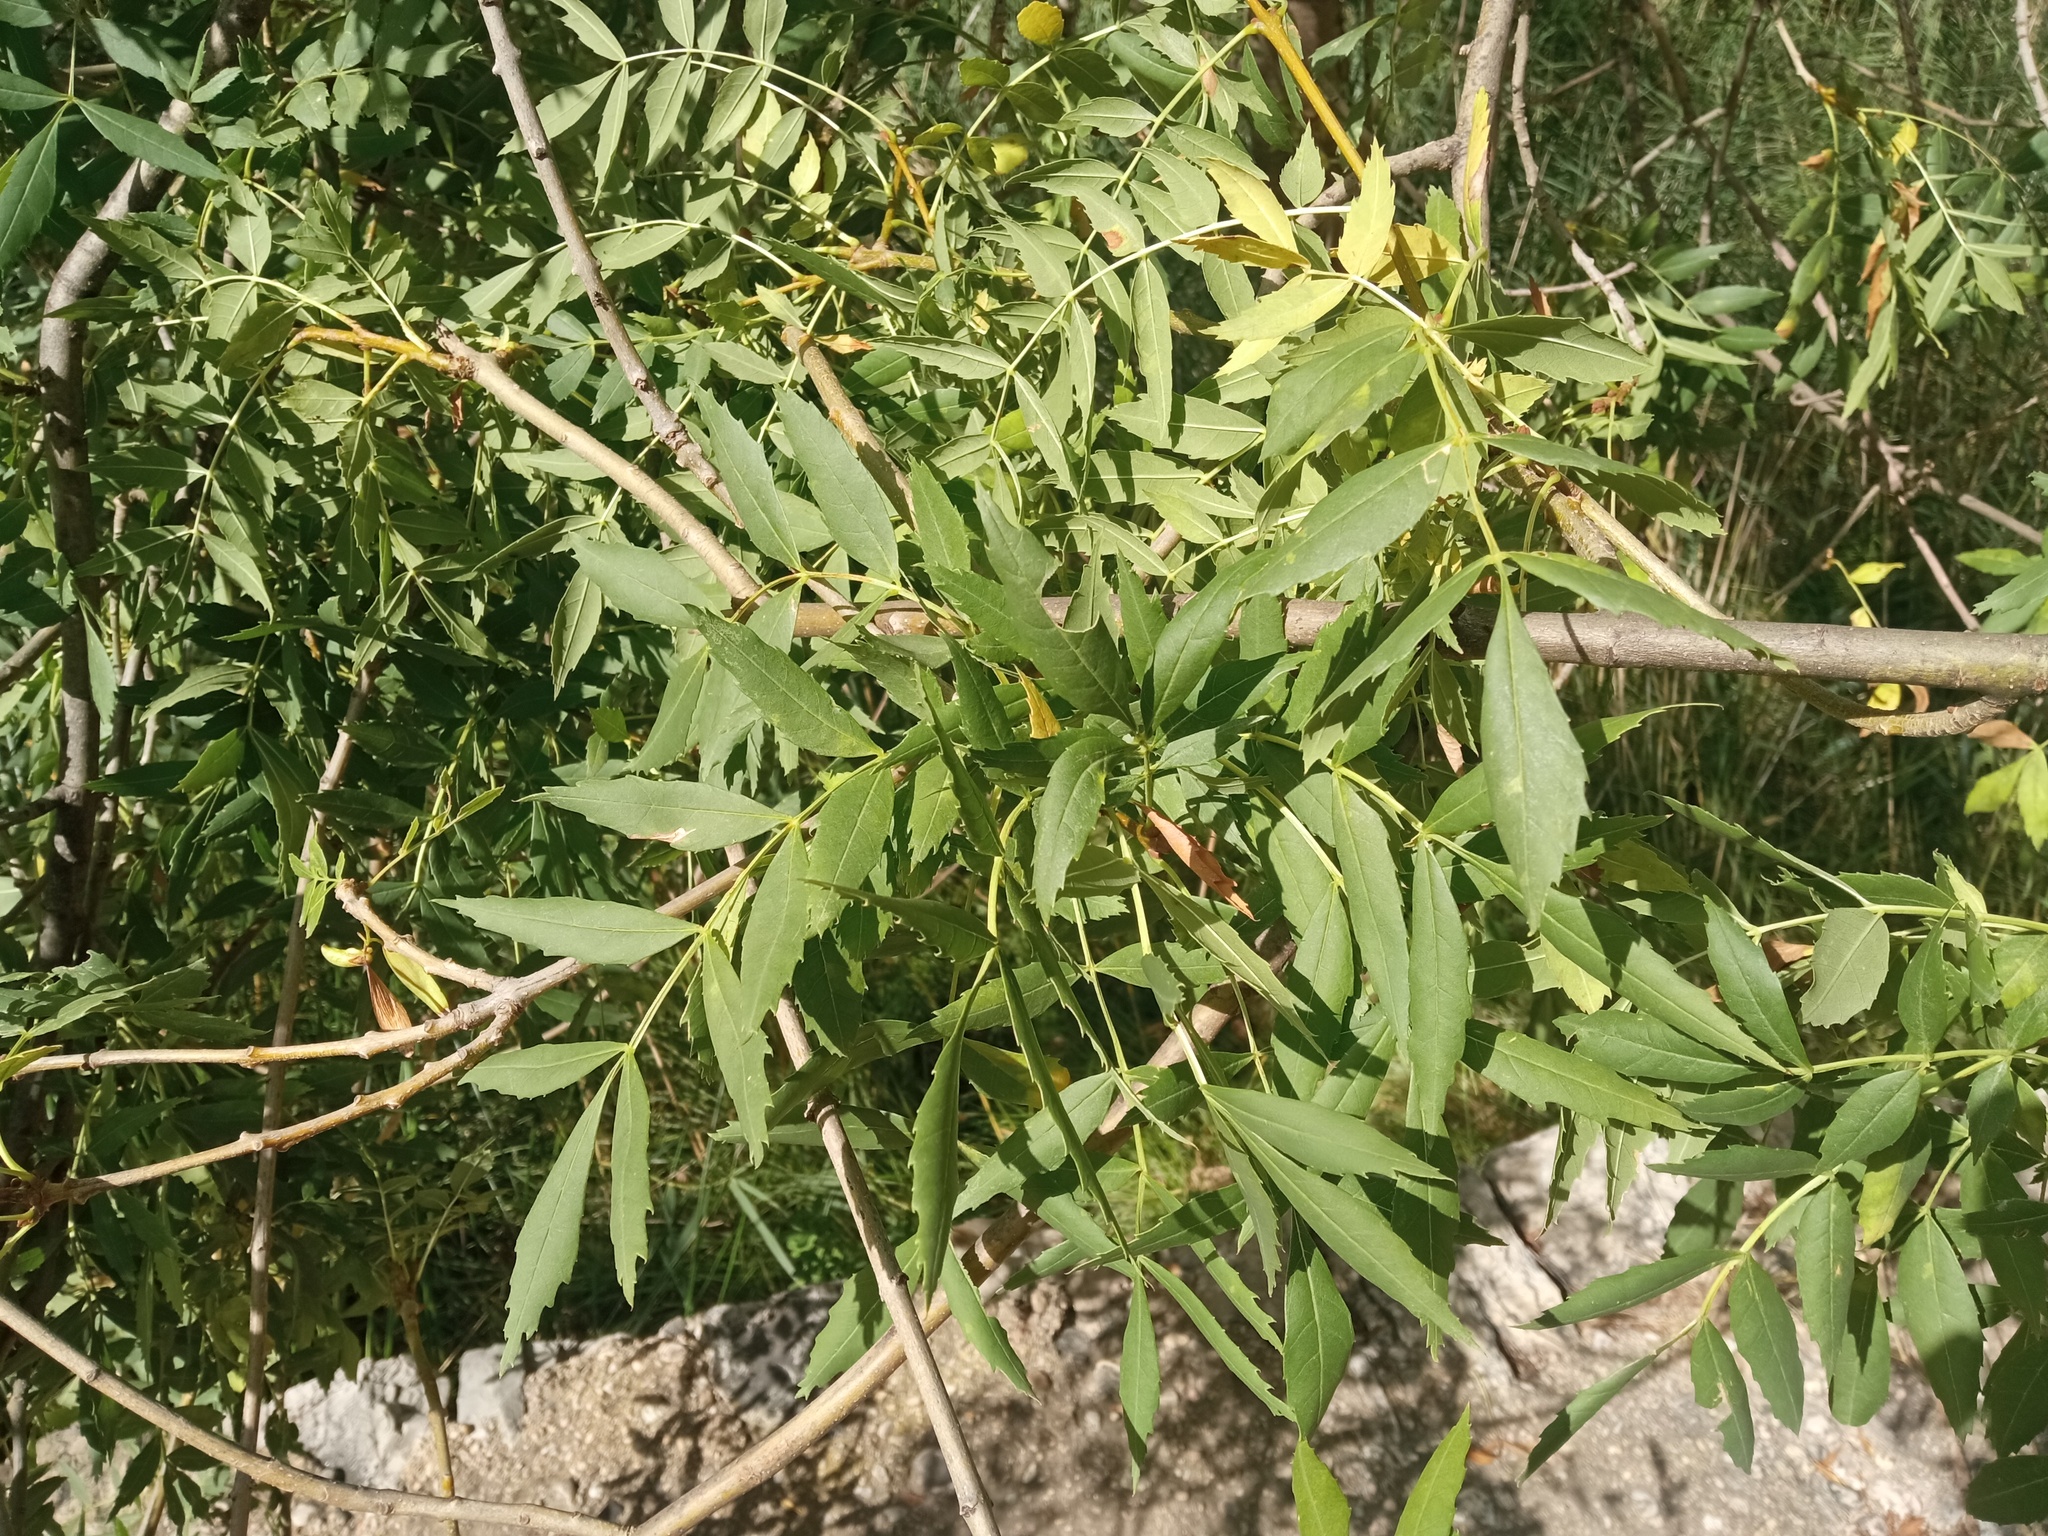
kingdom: Plantae
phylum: Tracheophyta
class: Magnoliopsida
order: Lamiales
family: Oleaceae
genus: Fraxinus
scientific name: Fraxinus angustifolia
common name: Narrow-leafed ash
